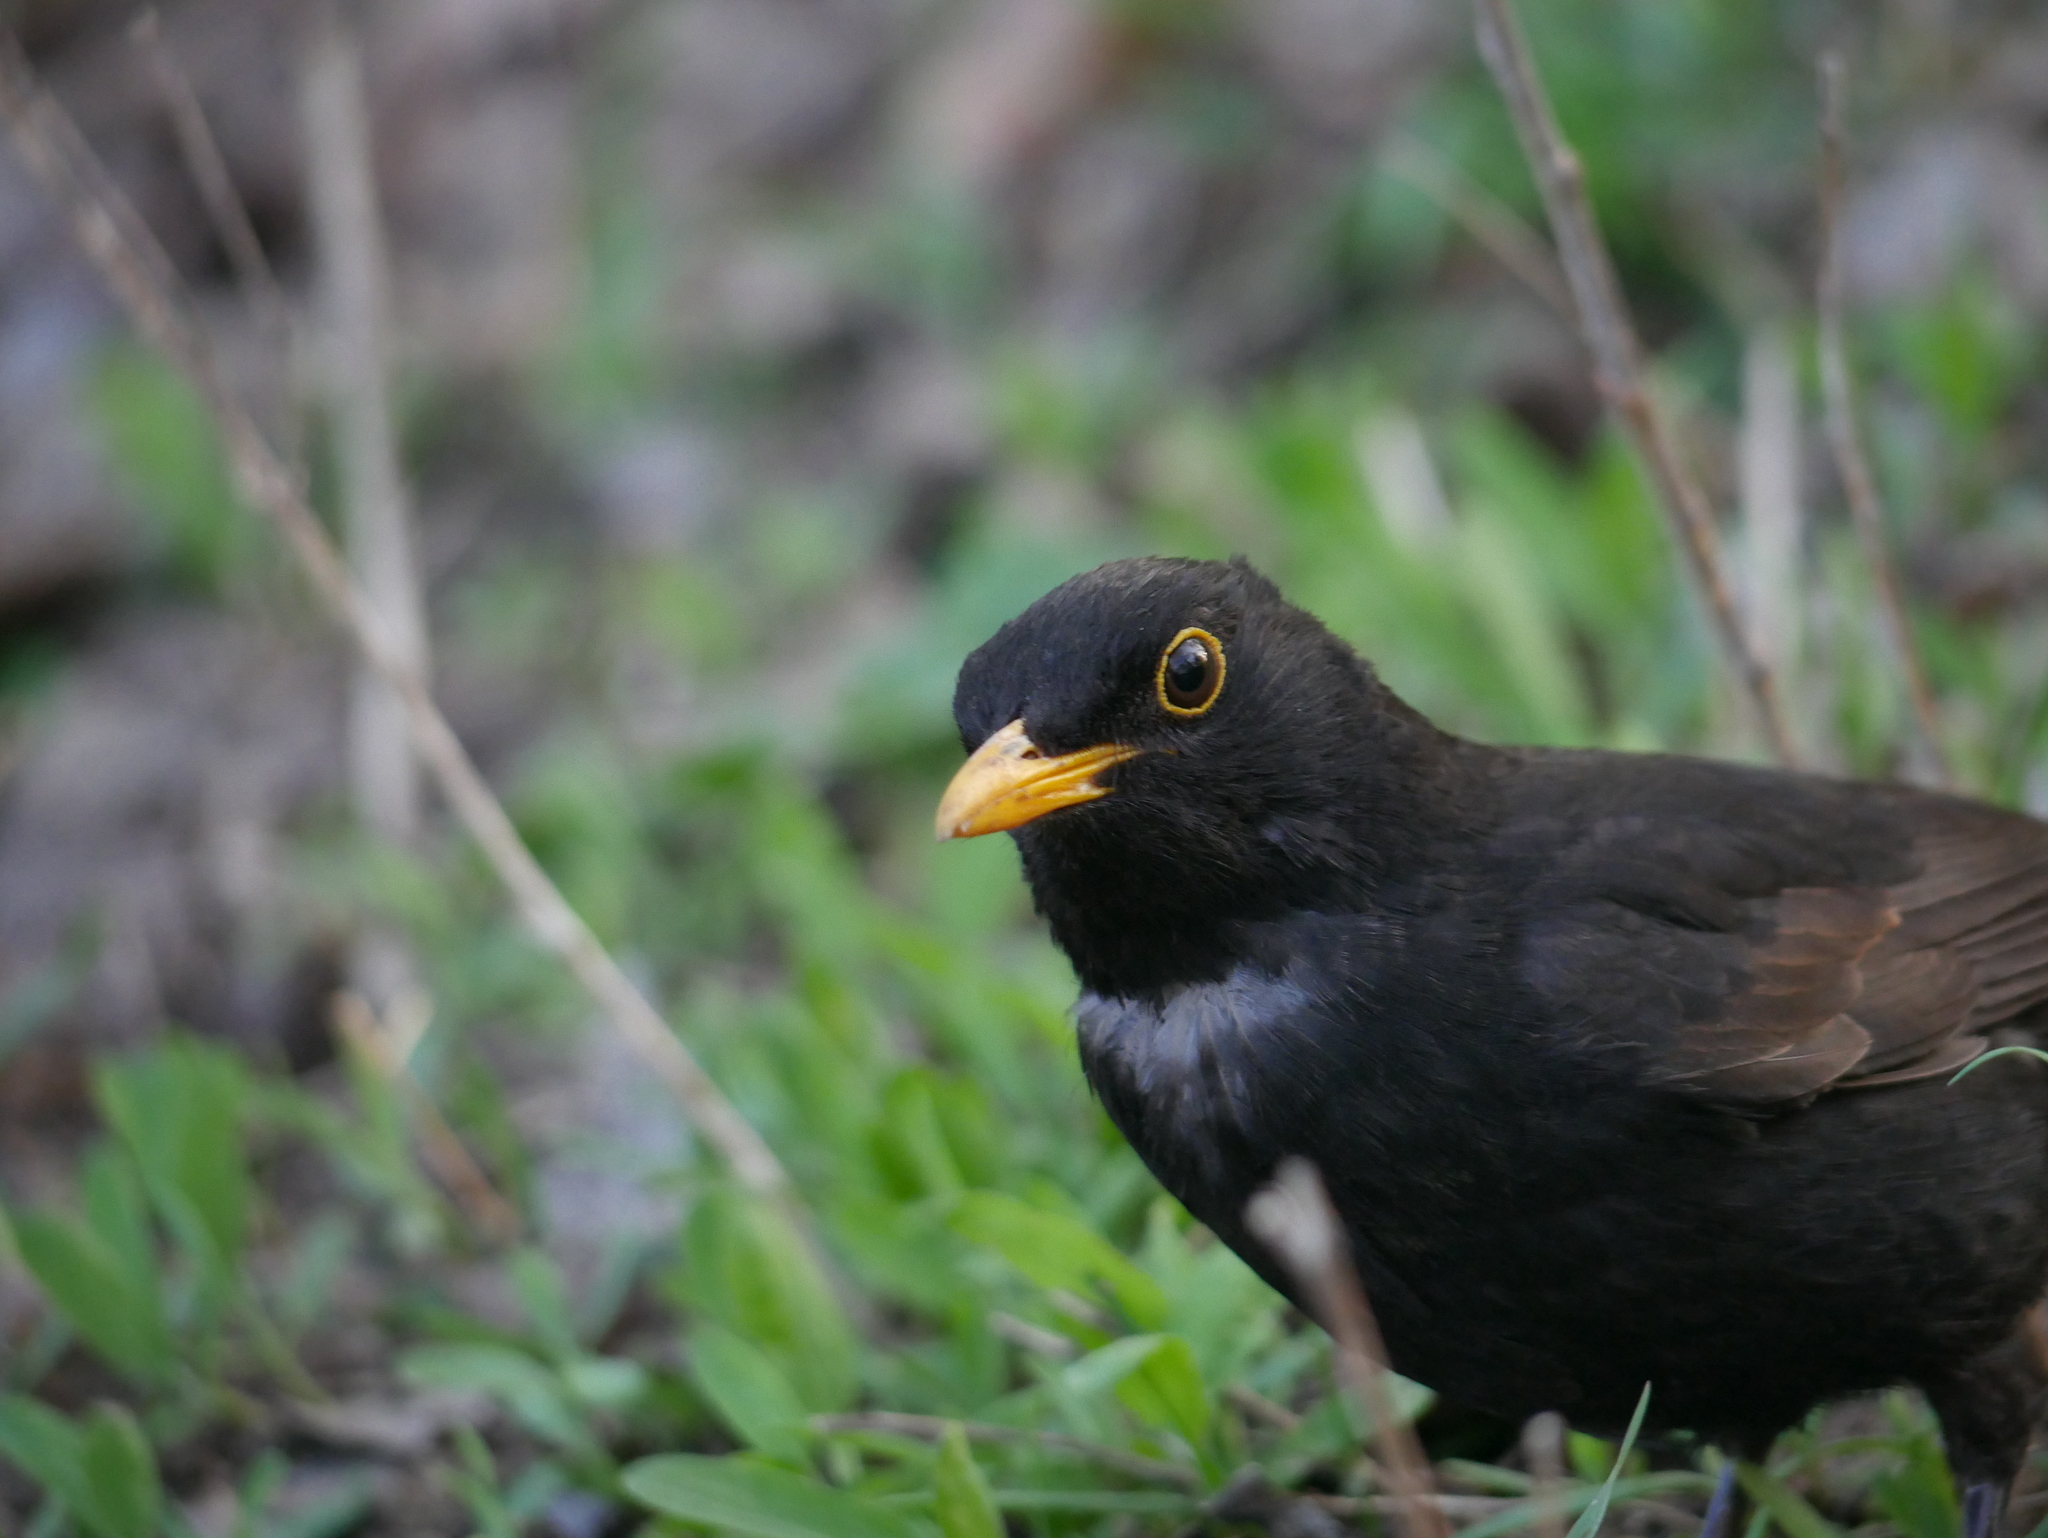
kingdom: Animalia
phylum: Chordata
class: Aves
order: Passeriformes
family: Turdidae
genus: Turdus
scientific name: Turdus merula
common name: Common blackbird
